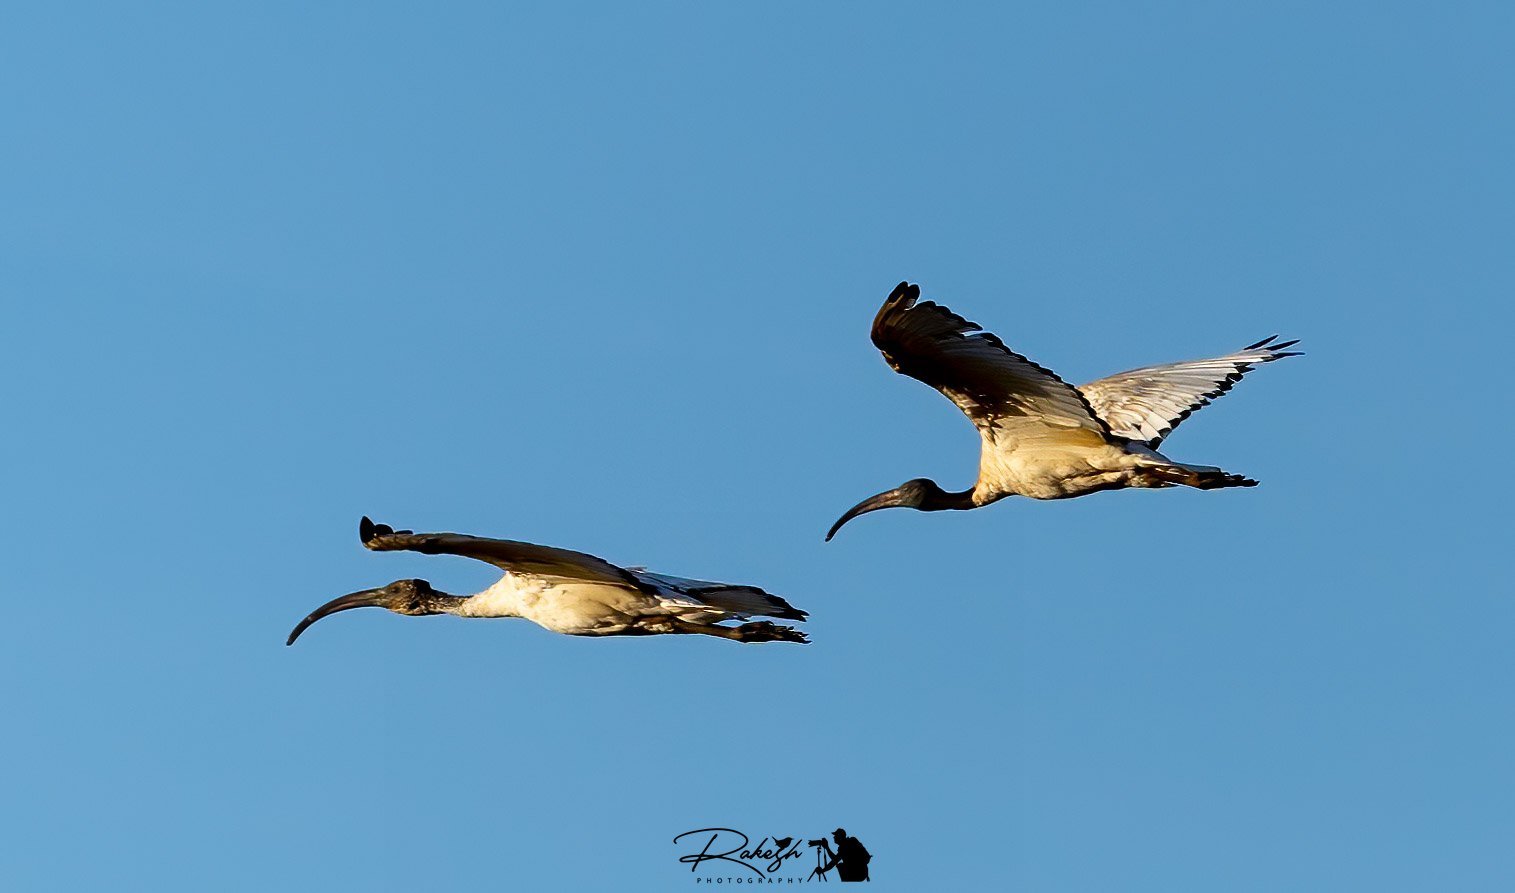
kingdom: Animalia
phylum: Chordata
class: Aves
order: Pelecaniformes
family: Threskiornithidae
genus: Threskiornis
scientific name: Threskiornis aethiopicus
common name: Sacred ibis
